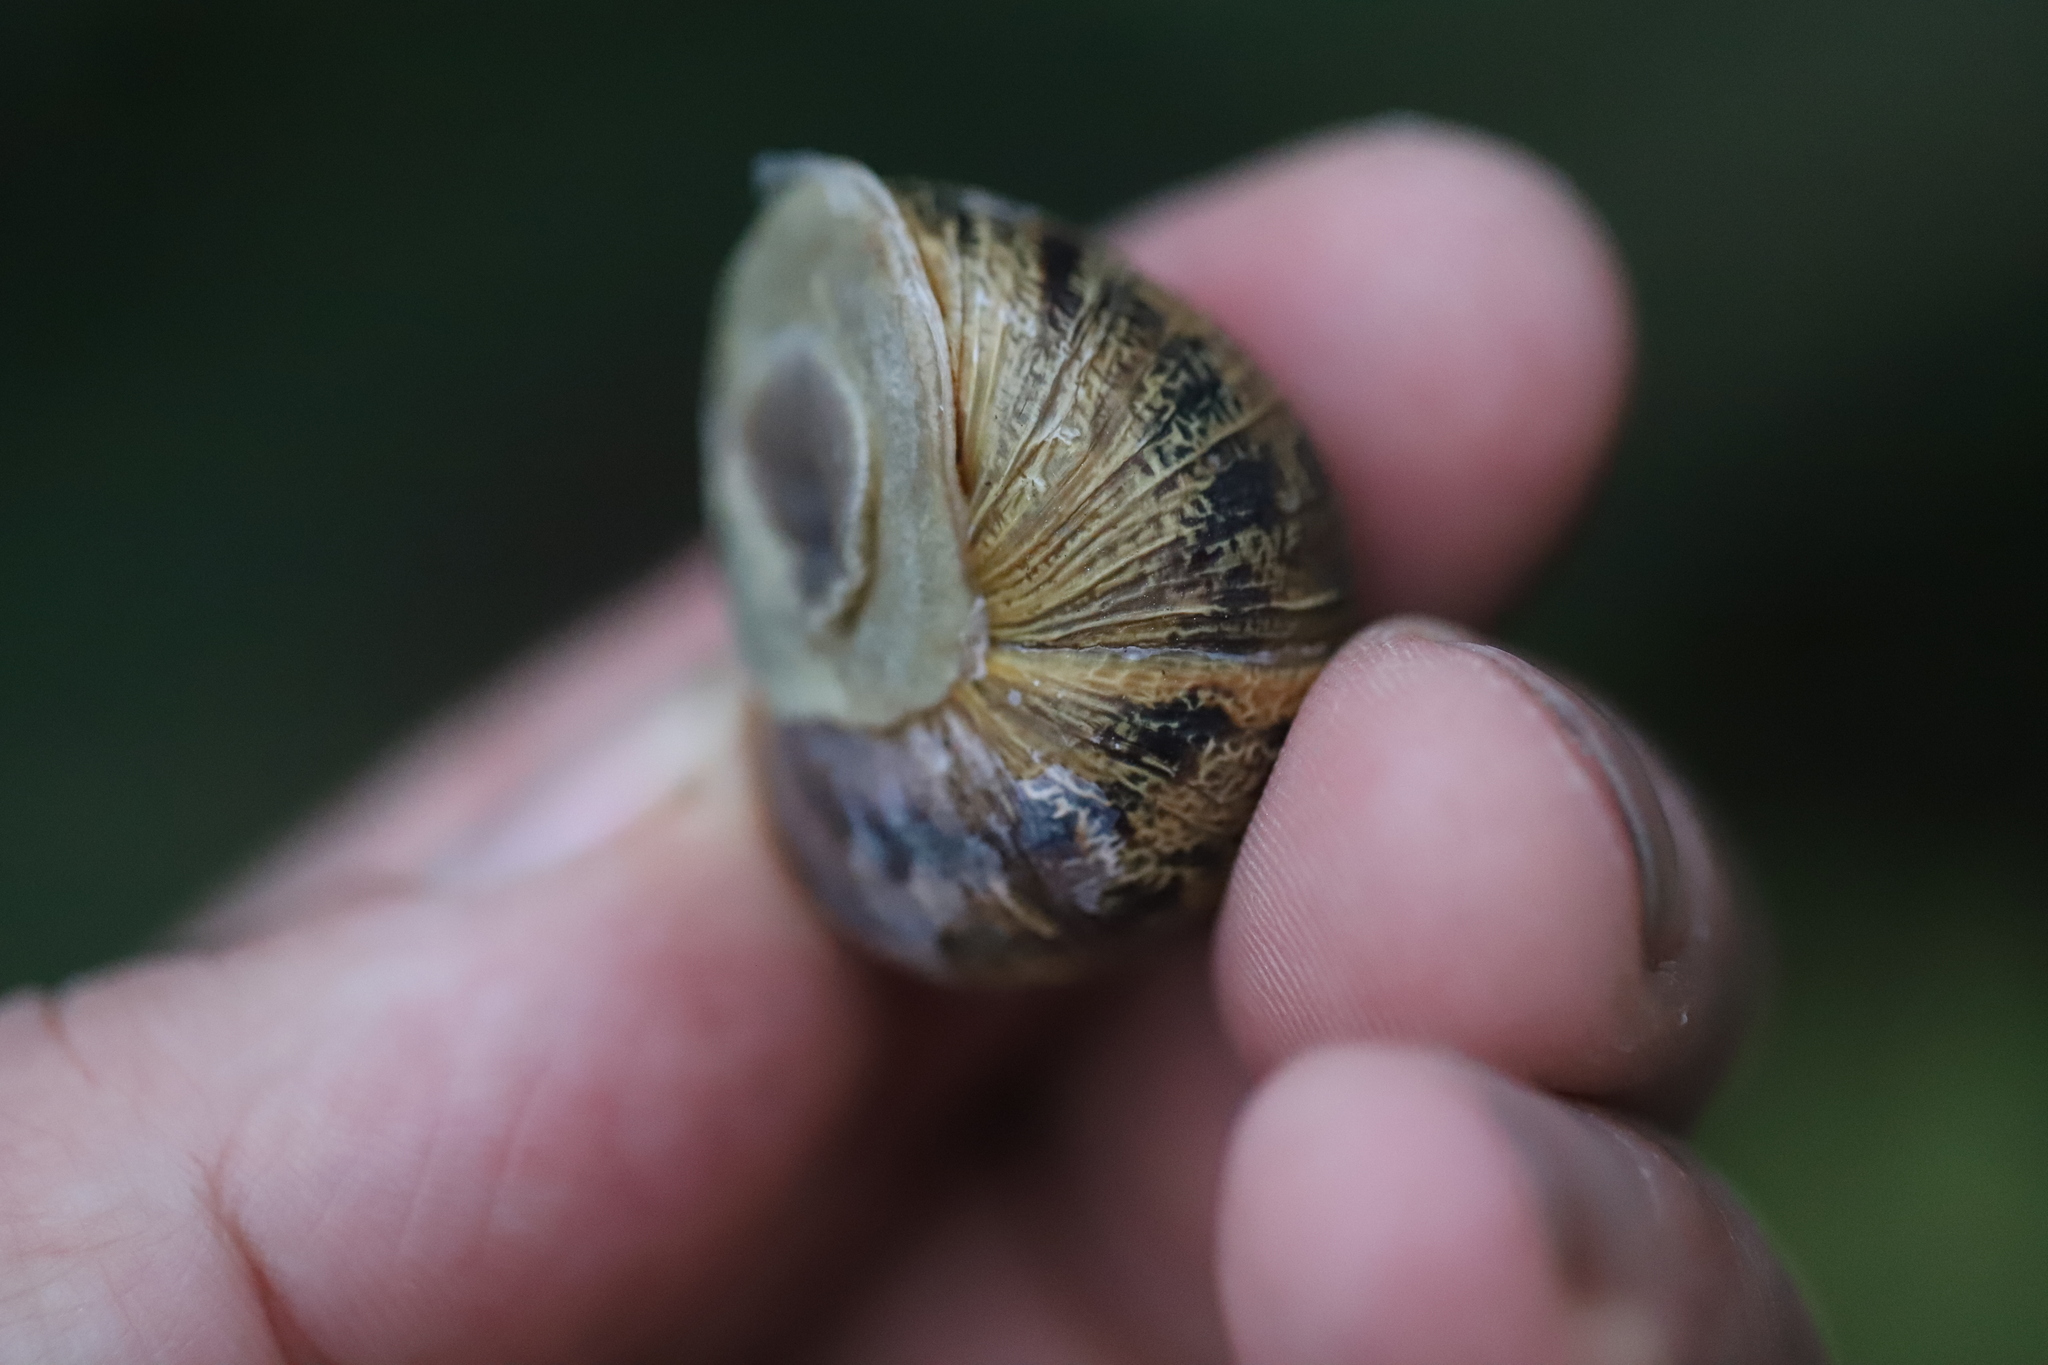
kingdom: Animalia
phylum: Mollusca
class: Gastropoda
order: Stylommatophora
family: Helicidae
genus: Cornu
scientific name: Cornu aspersum
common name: Brown garden snail
